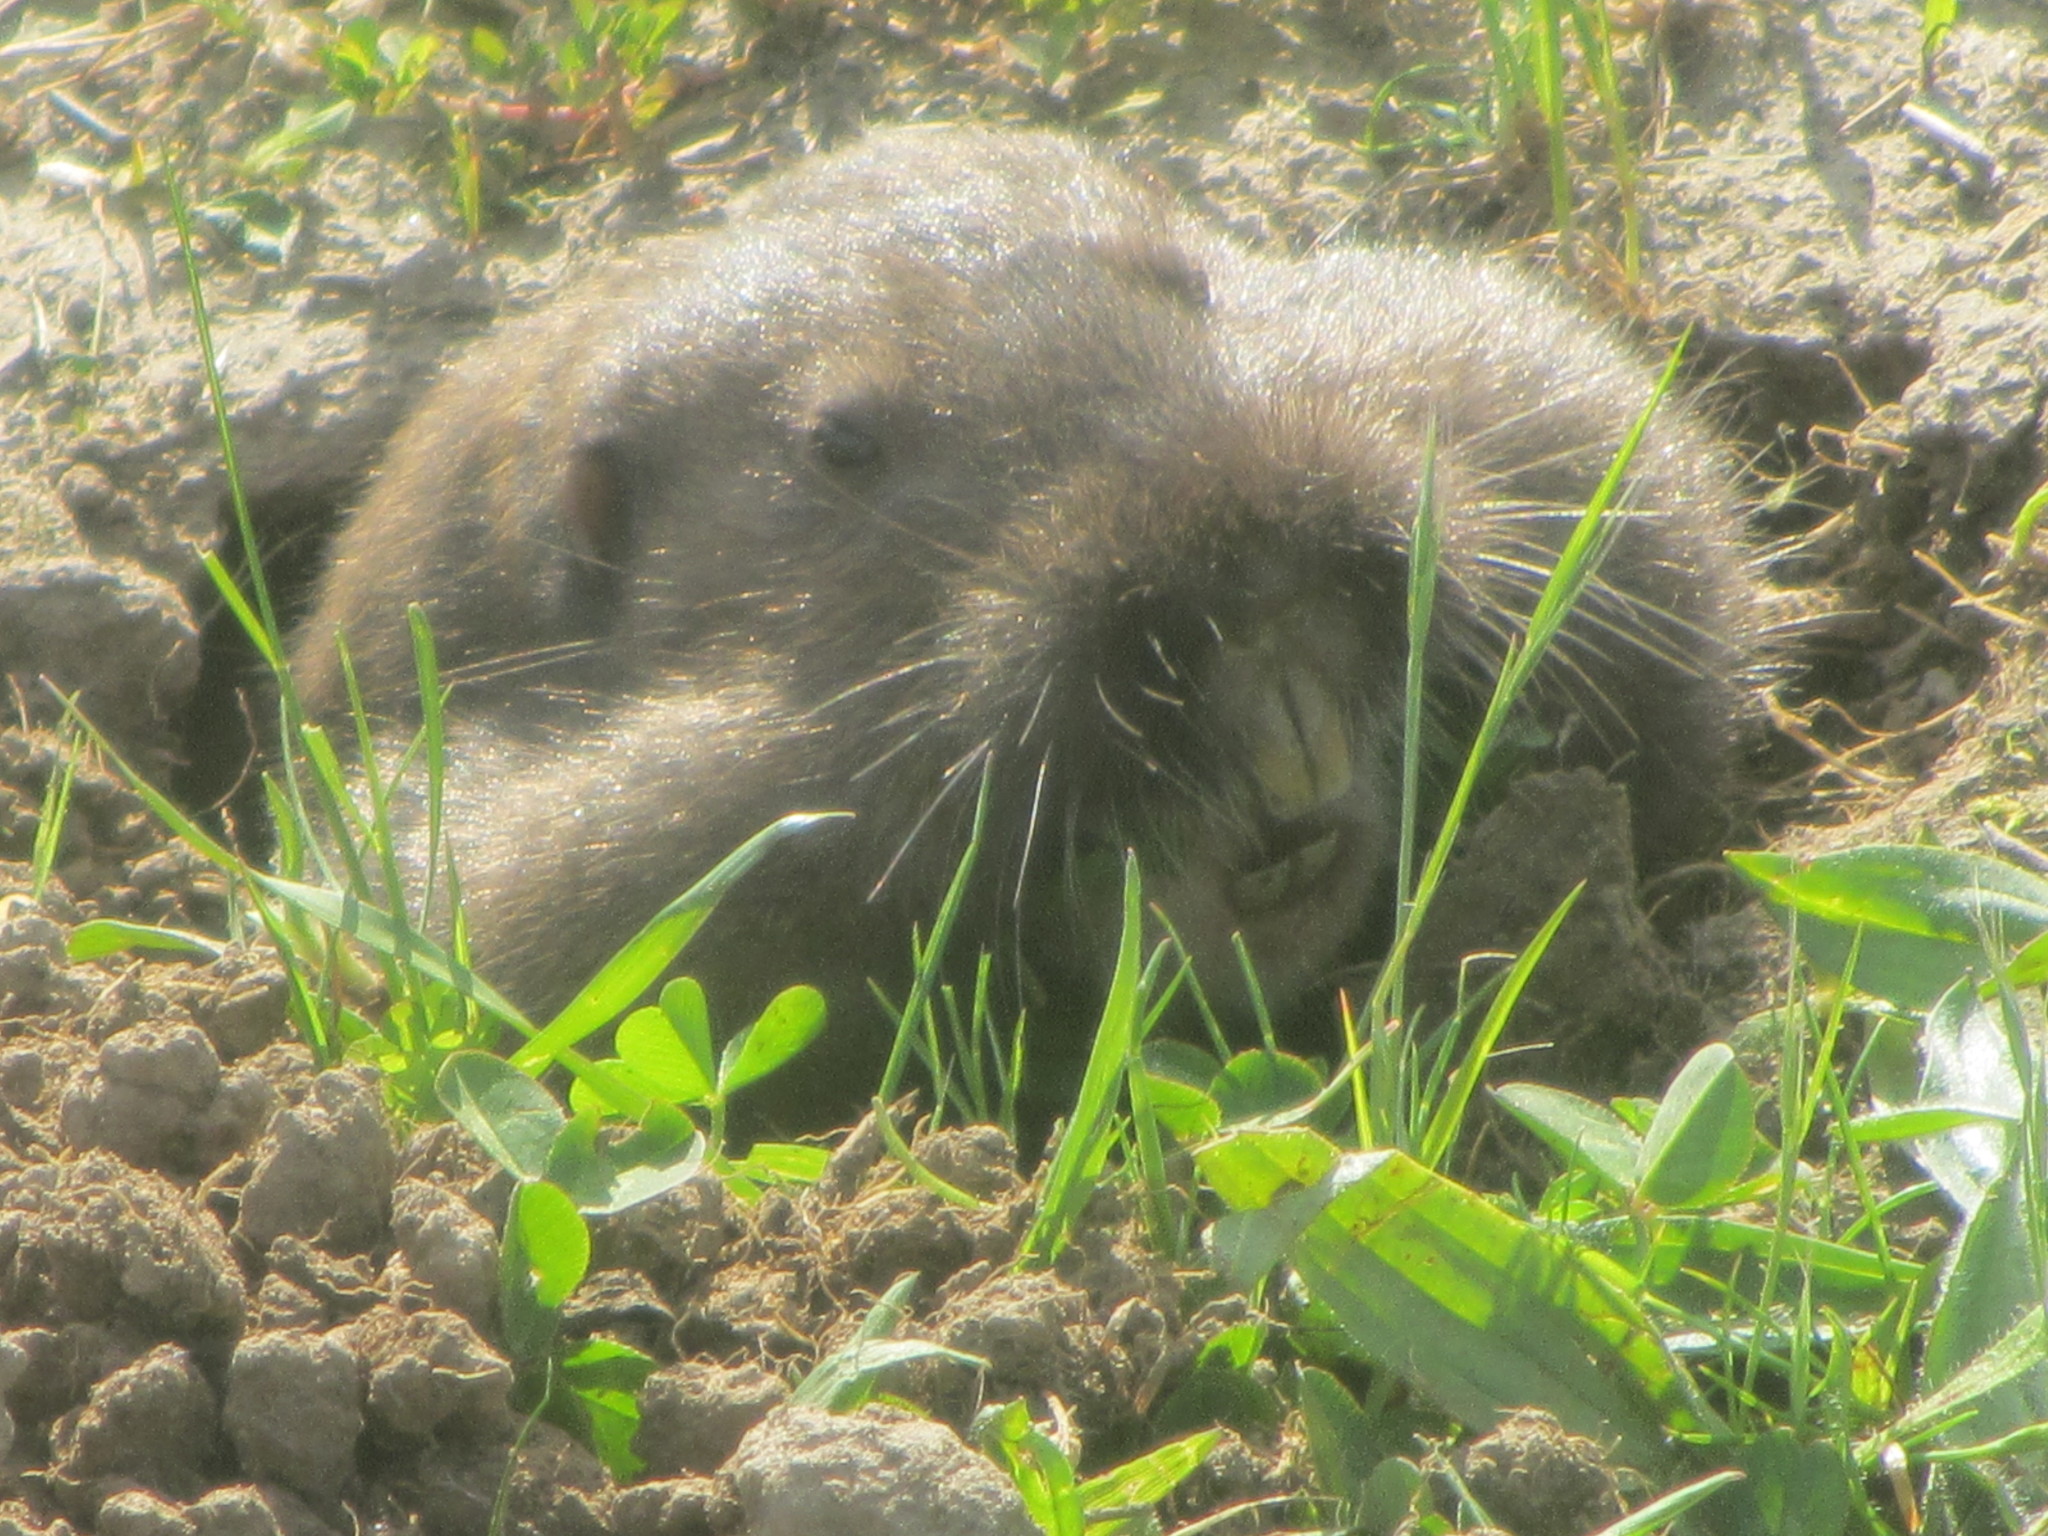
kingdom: Animalia
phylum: Chordata
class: Mammalia
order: Rodentia
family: Geomyidae
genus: Thomomys
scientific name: Thomomys bulbivorus
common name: Camas pocket gopher
